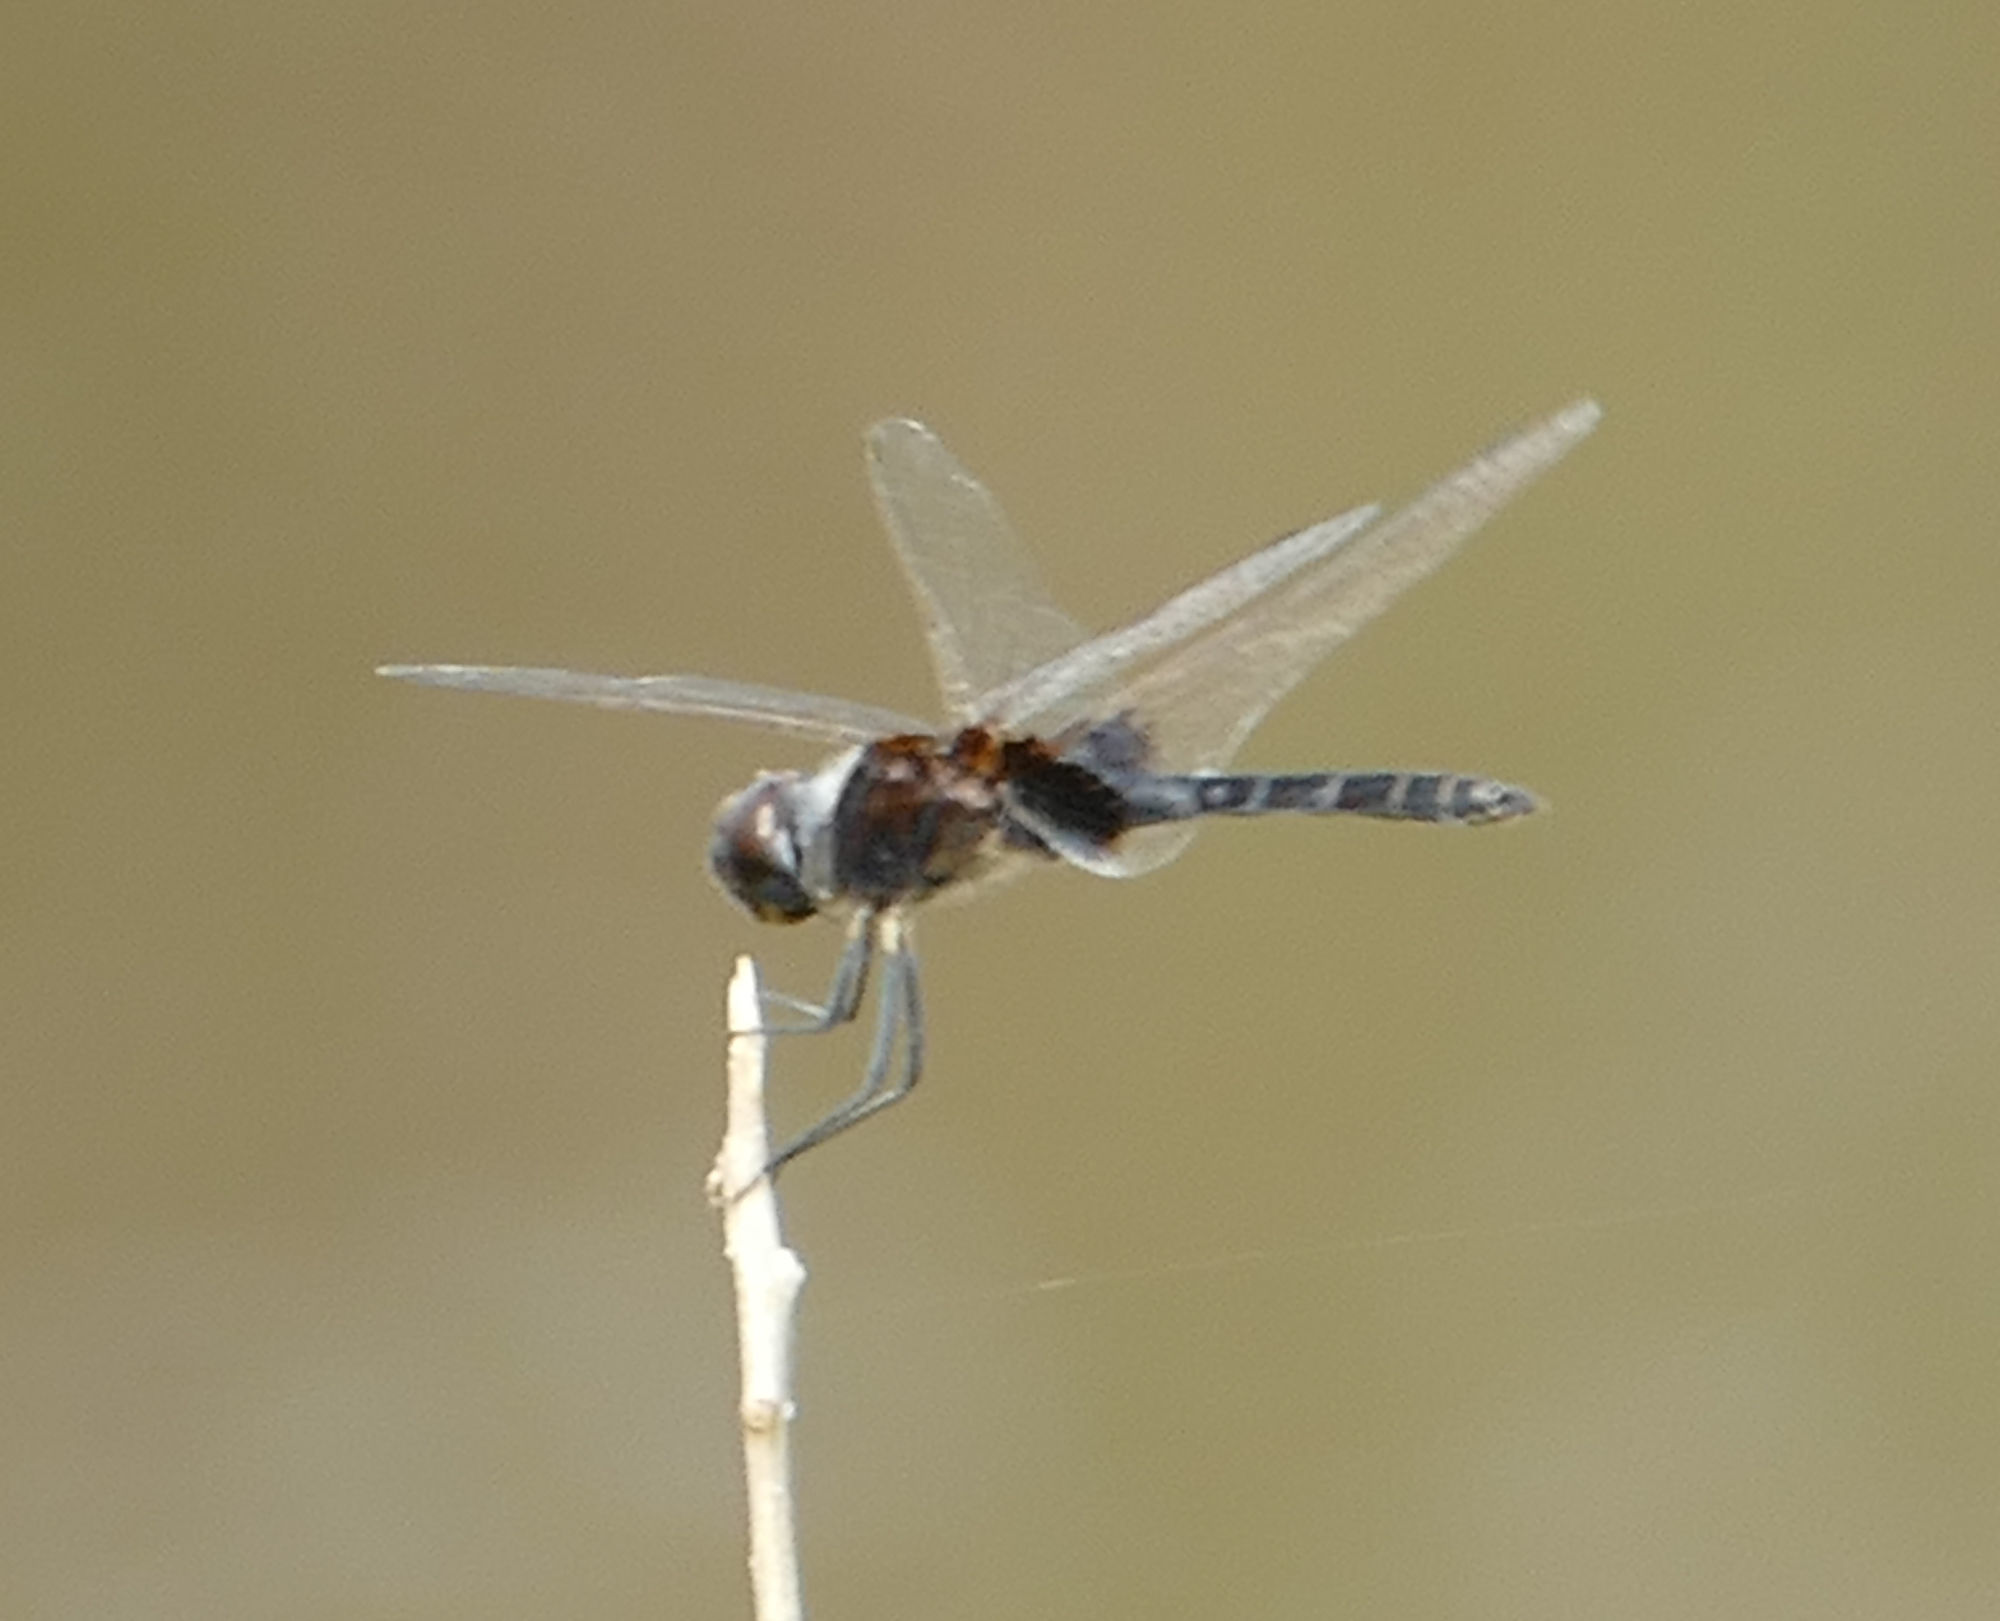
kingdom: Animalia
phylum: Arthropoda
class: Insecta
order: Odonata
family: Libellulidae
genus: Macrodiplax
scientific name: Macrodiplax balteata
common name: Marl pennant
